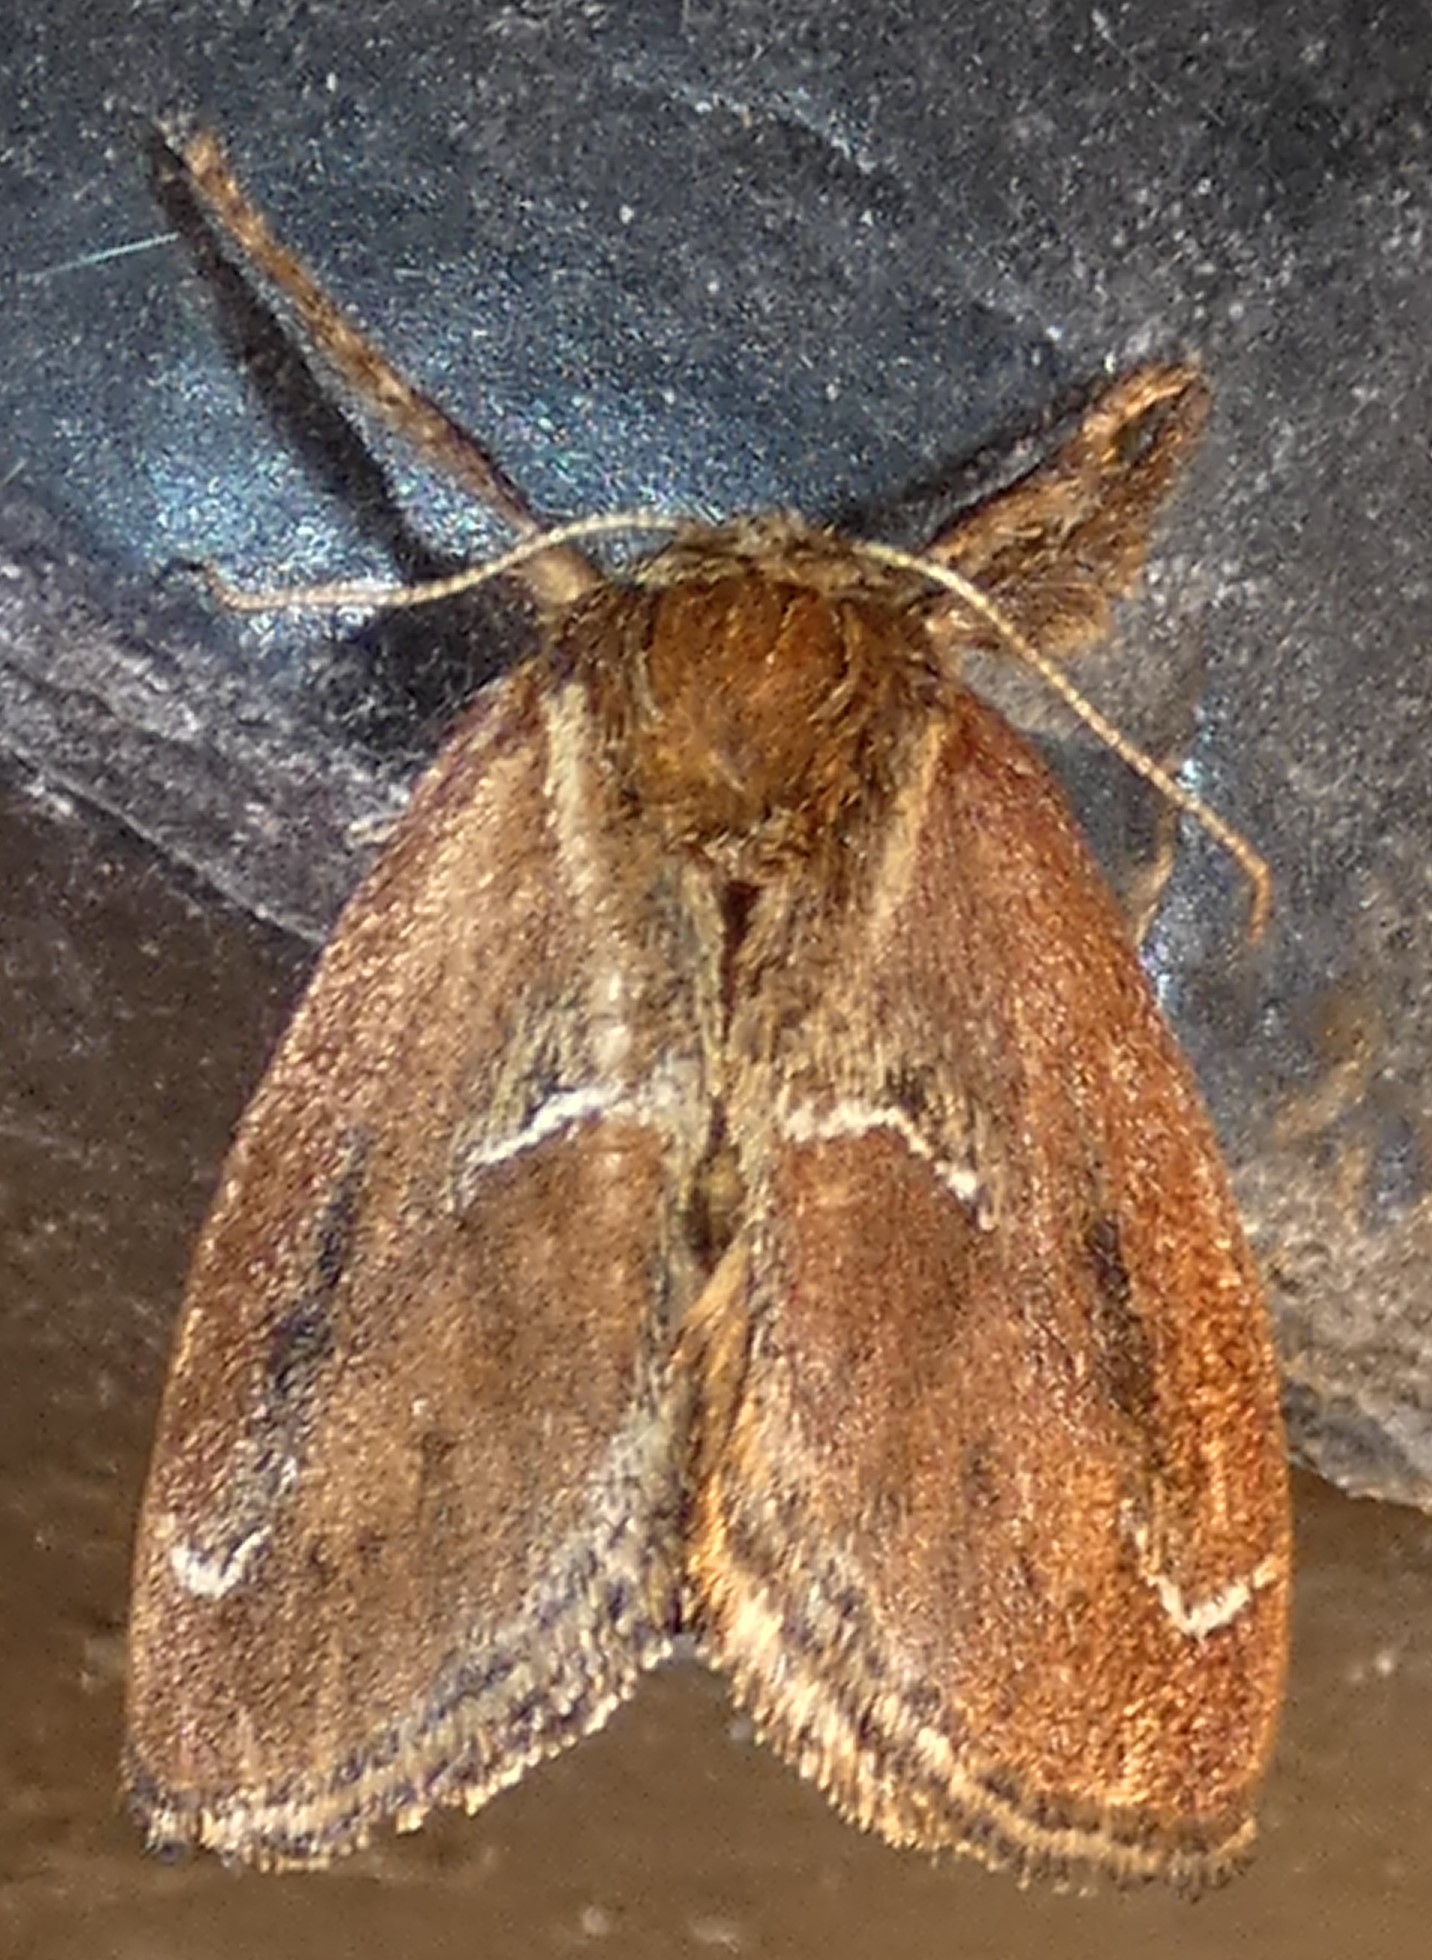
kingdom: Animalia
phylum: Arthropoda
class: Insecta
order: Lepidoptera
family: Limacodidae
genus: Adoneta
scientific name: Adoneta spinuloides
